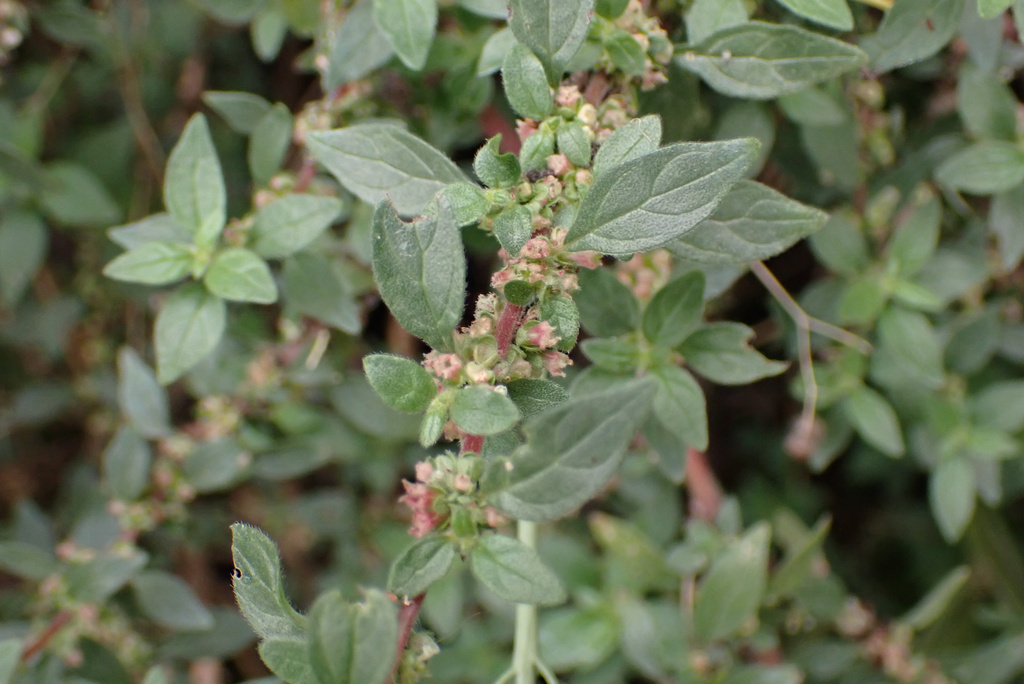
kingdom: Plantae
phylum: Tracheophyta
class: Magnoliopsida
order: Rosales
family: Urticaceae
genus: Parietaria
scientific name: Parietaria judaica
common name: Pellitory-of-the-wall
